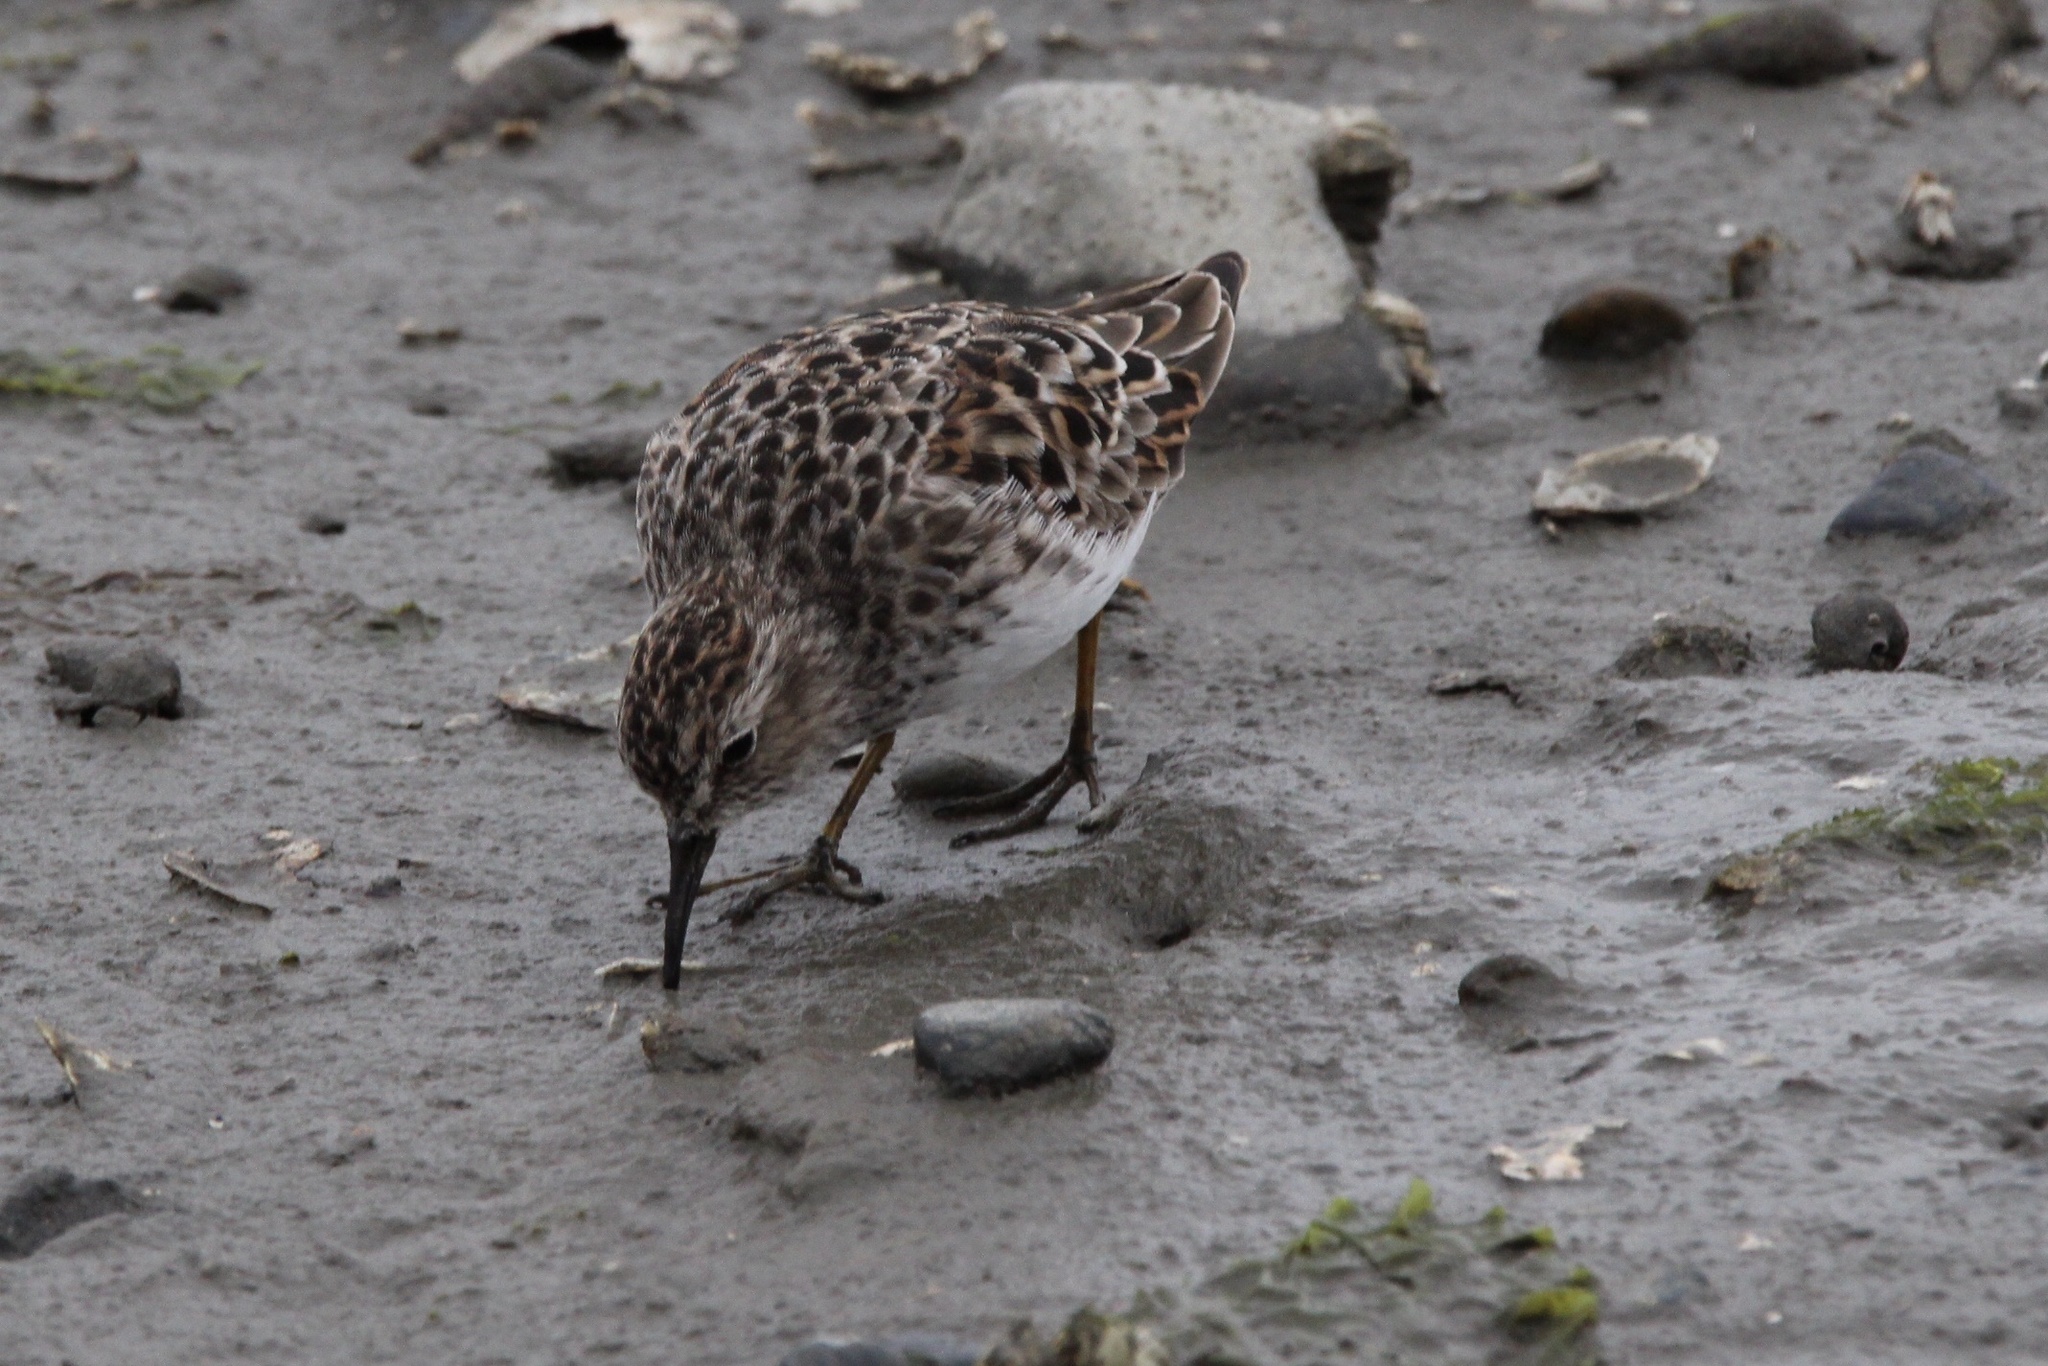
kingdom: Animalia
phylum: Chordata
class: Aves
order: Charadriiformes
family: Scolopacidae
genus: Calidris
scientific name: Calidris minutilla
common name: Least sandpiper
